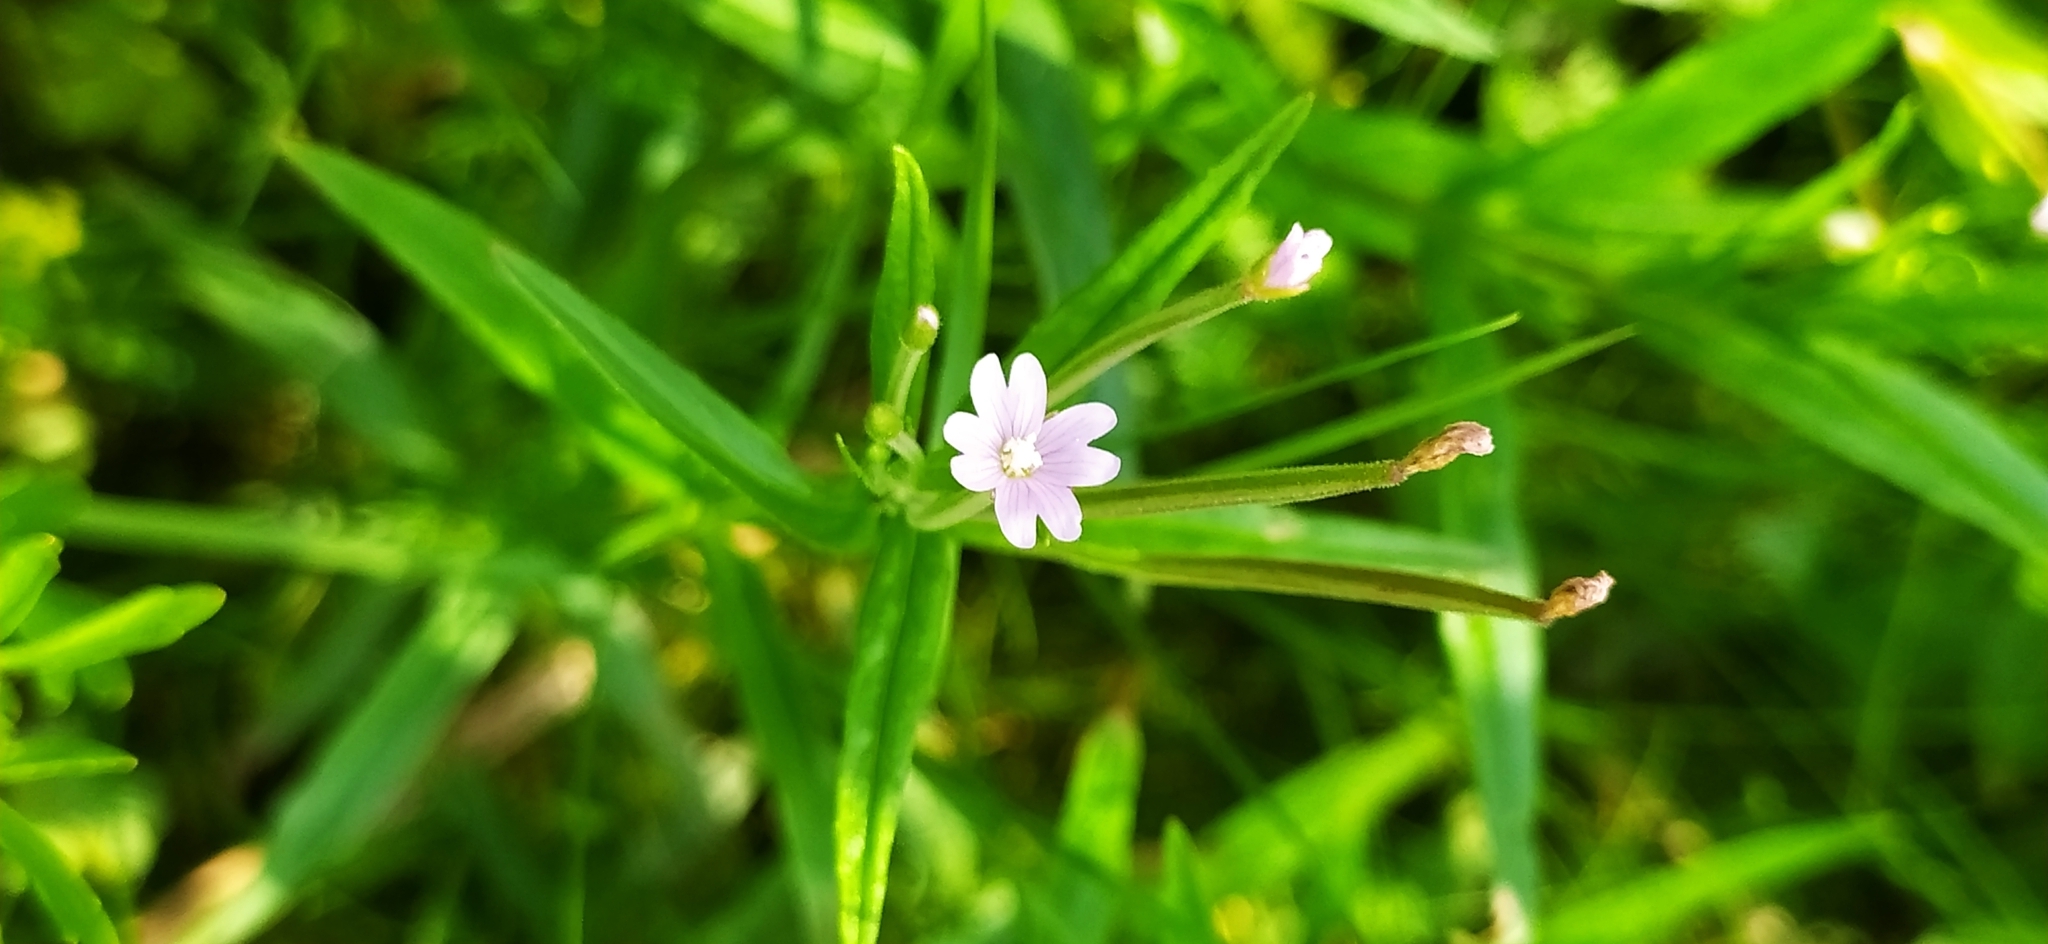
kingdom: Plantae
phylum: Tracheophyta
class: Magnoliopsida
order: Myrtales
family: Onagraceae
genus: Epilobium
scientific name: Epilobium palustre
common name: Marsh willowherb
